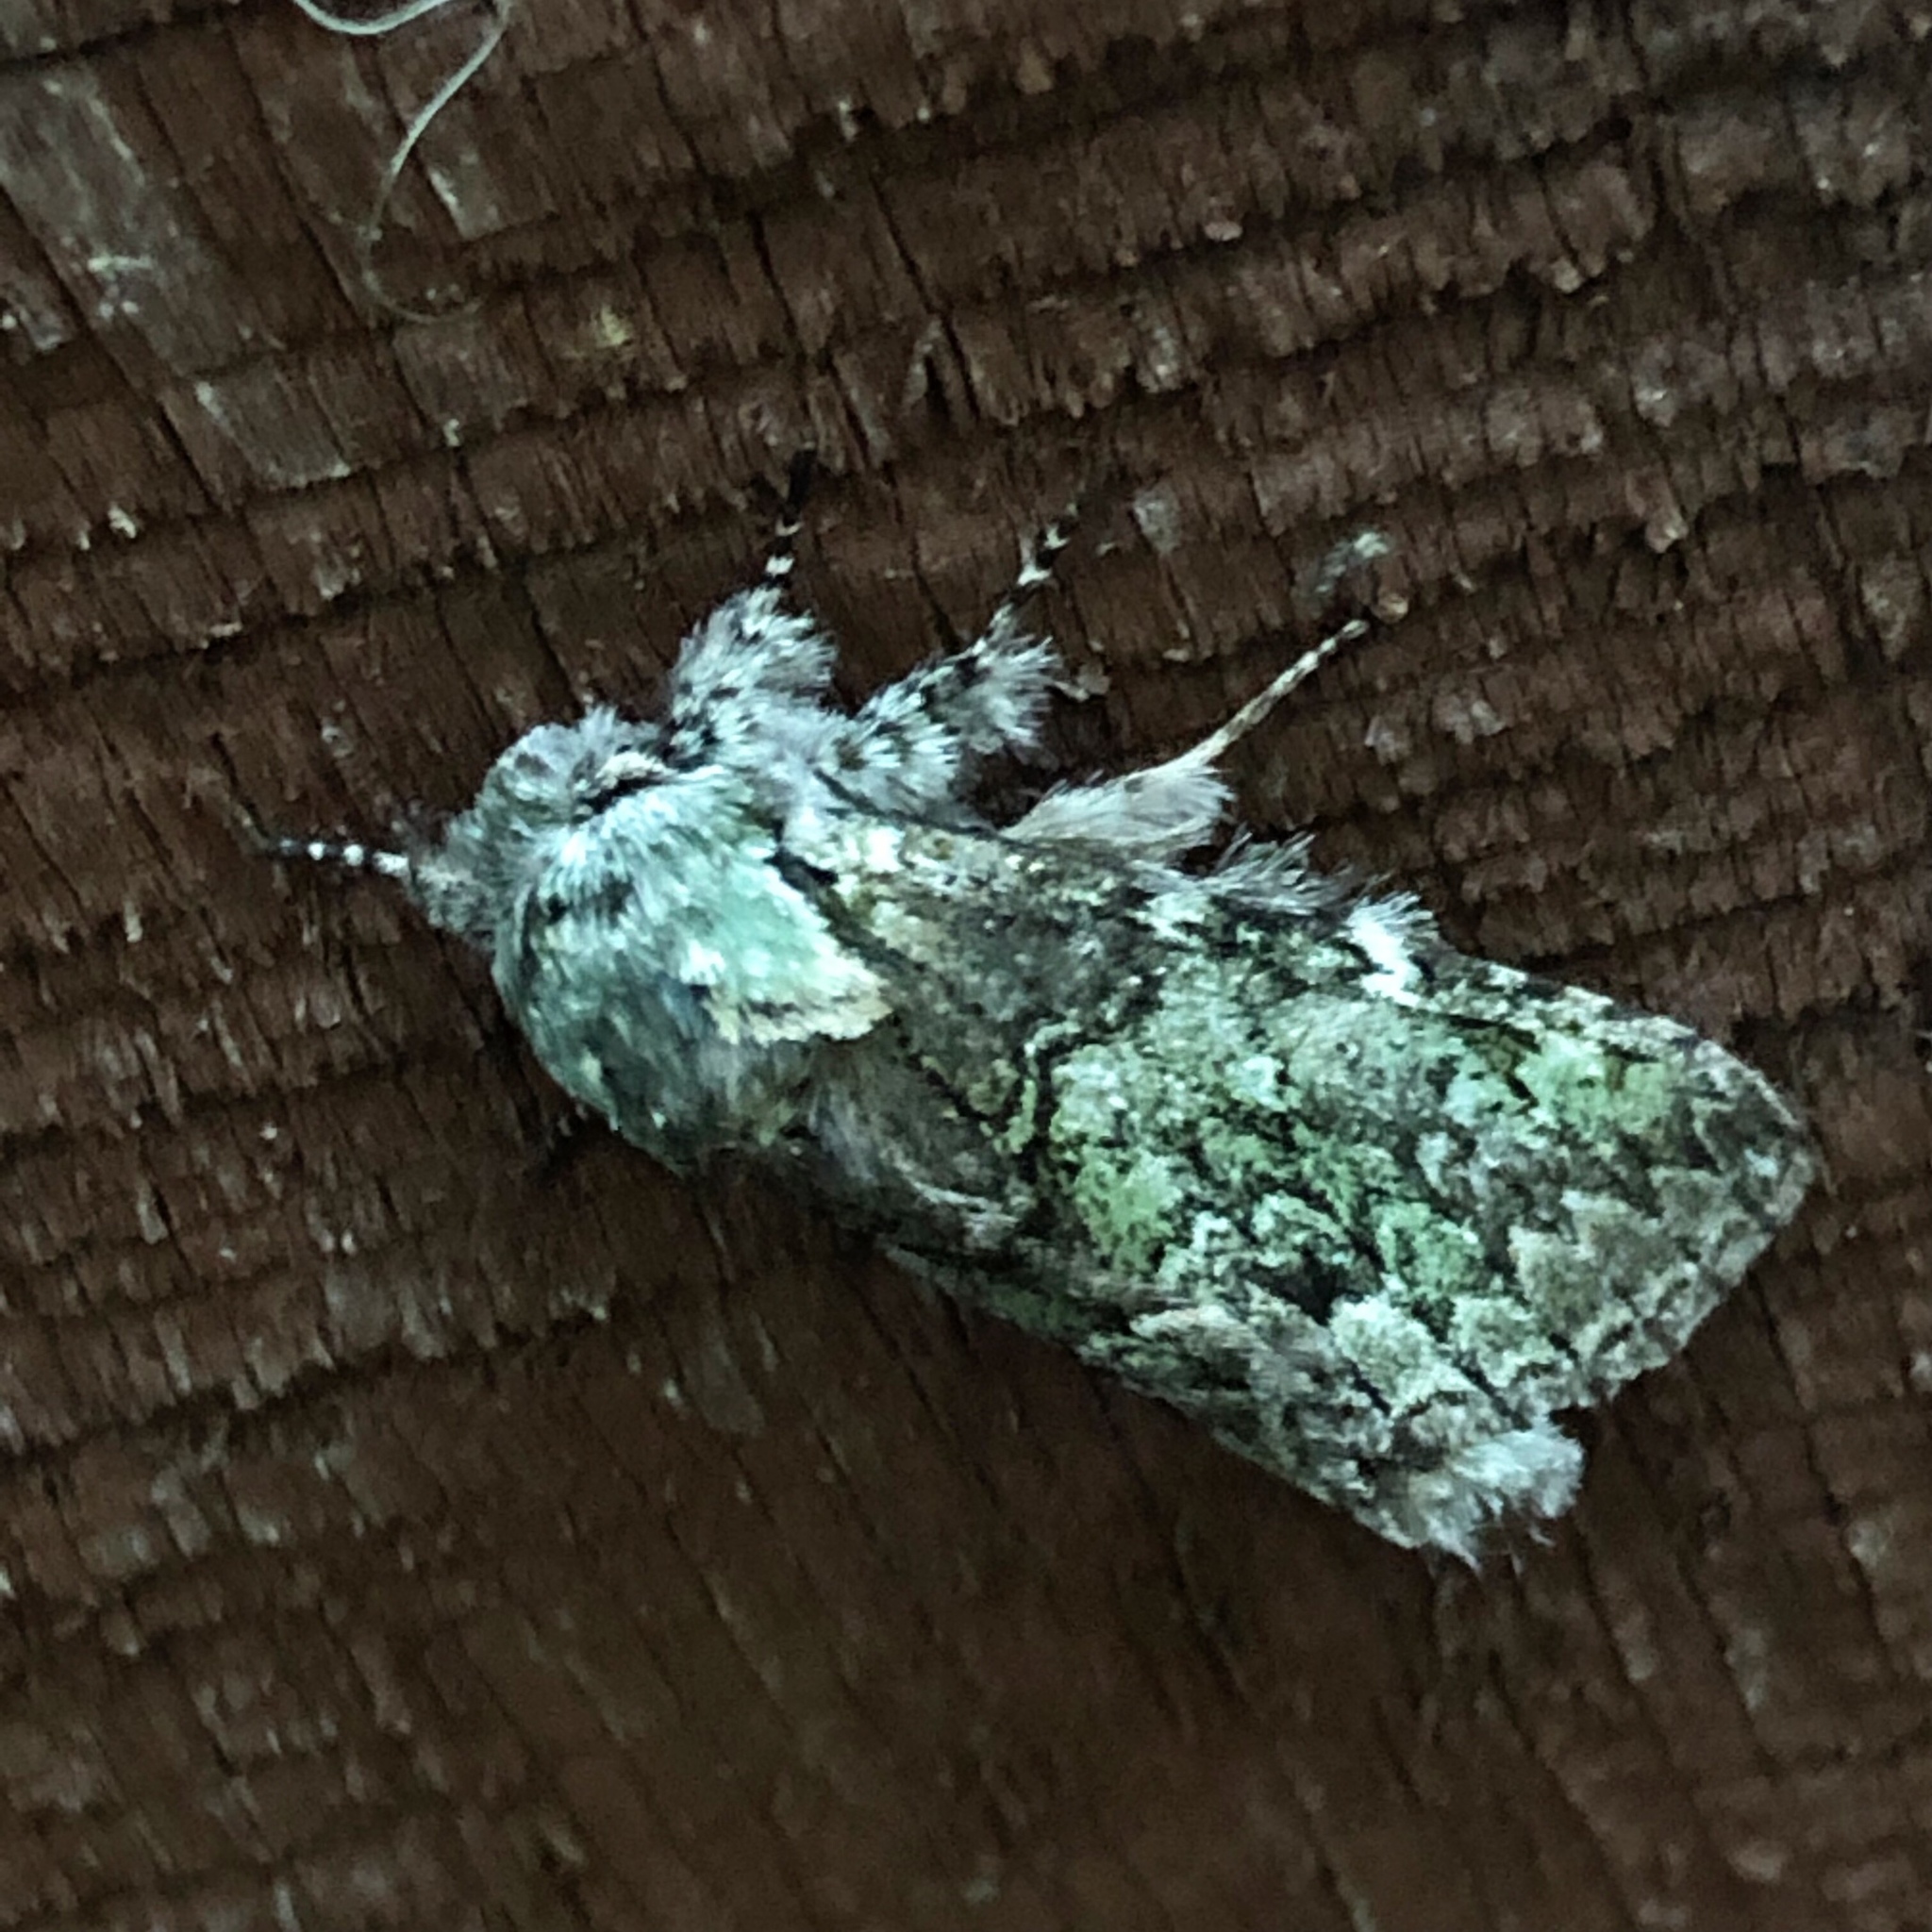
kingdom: Animalia
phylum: Arthropoda
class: Insecta
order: Lepidoptera
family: Notodontidae
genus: Macrurocampa
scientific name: Macrurocampa marthesia
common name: Mottled prominent
